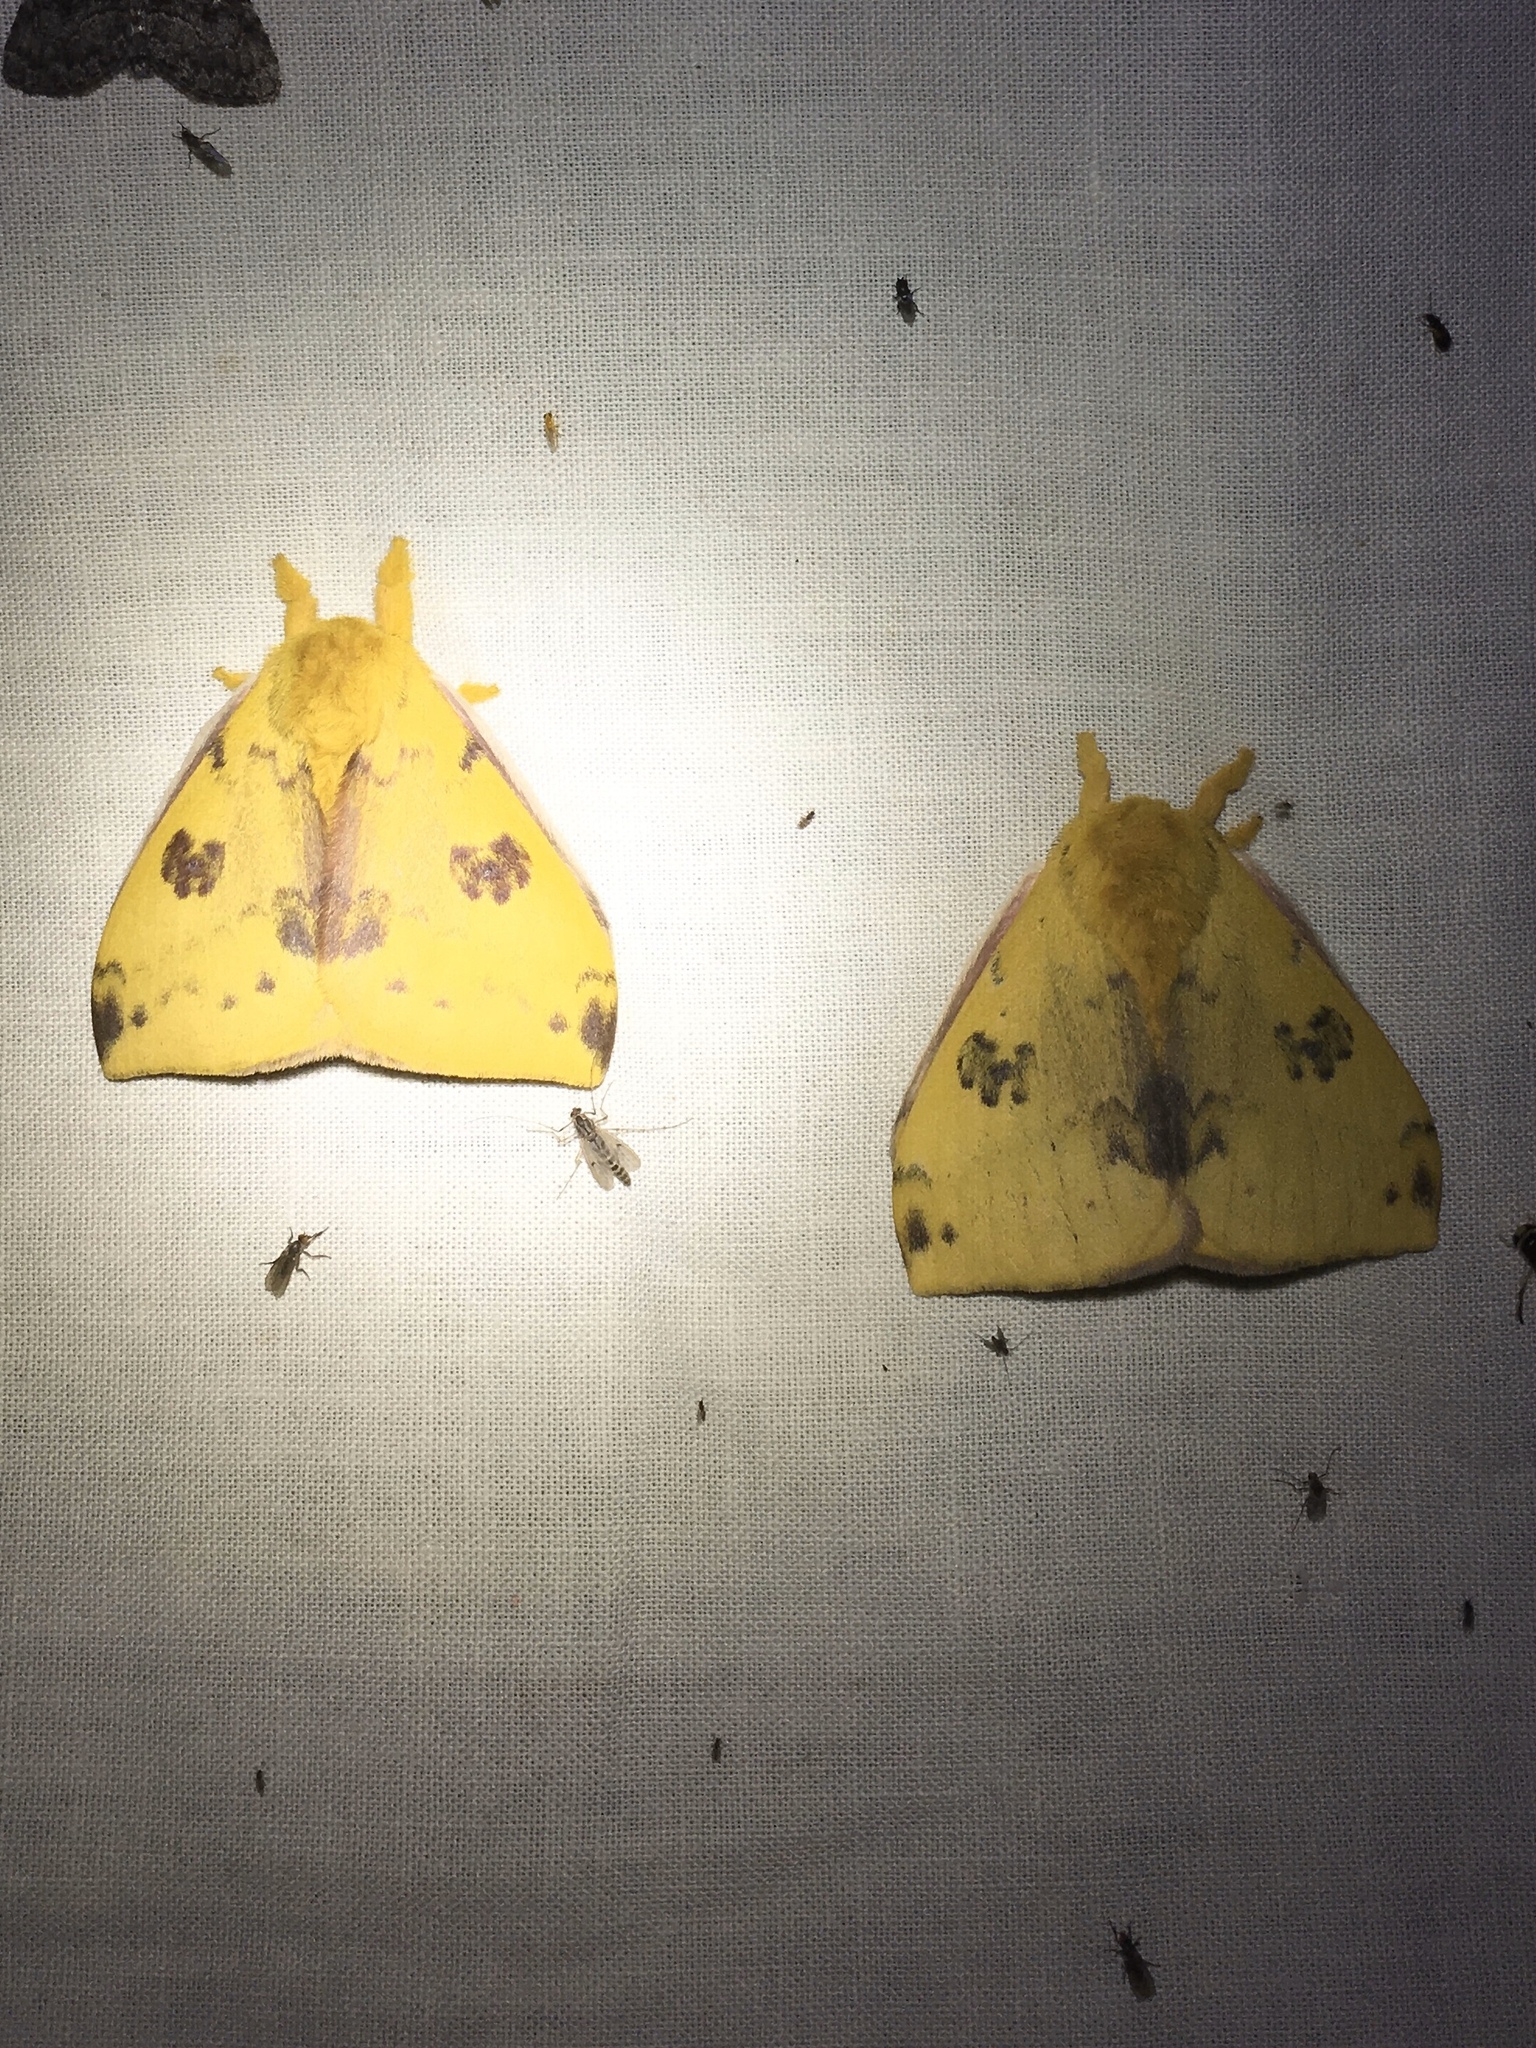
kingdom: Animalia
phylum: Arthropoda
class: Insecta
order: Lepidoptera
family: Saturniidae
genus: Automeris
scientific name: Automeris io
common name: Io moth
